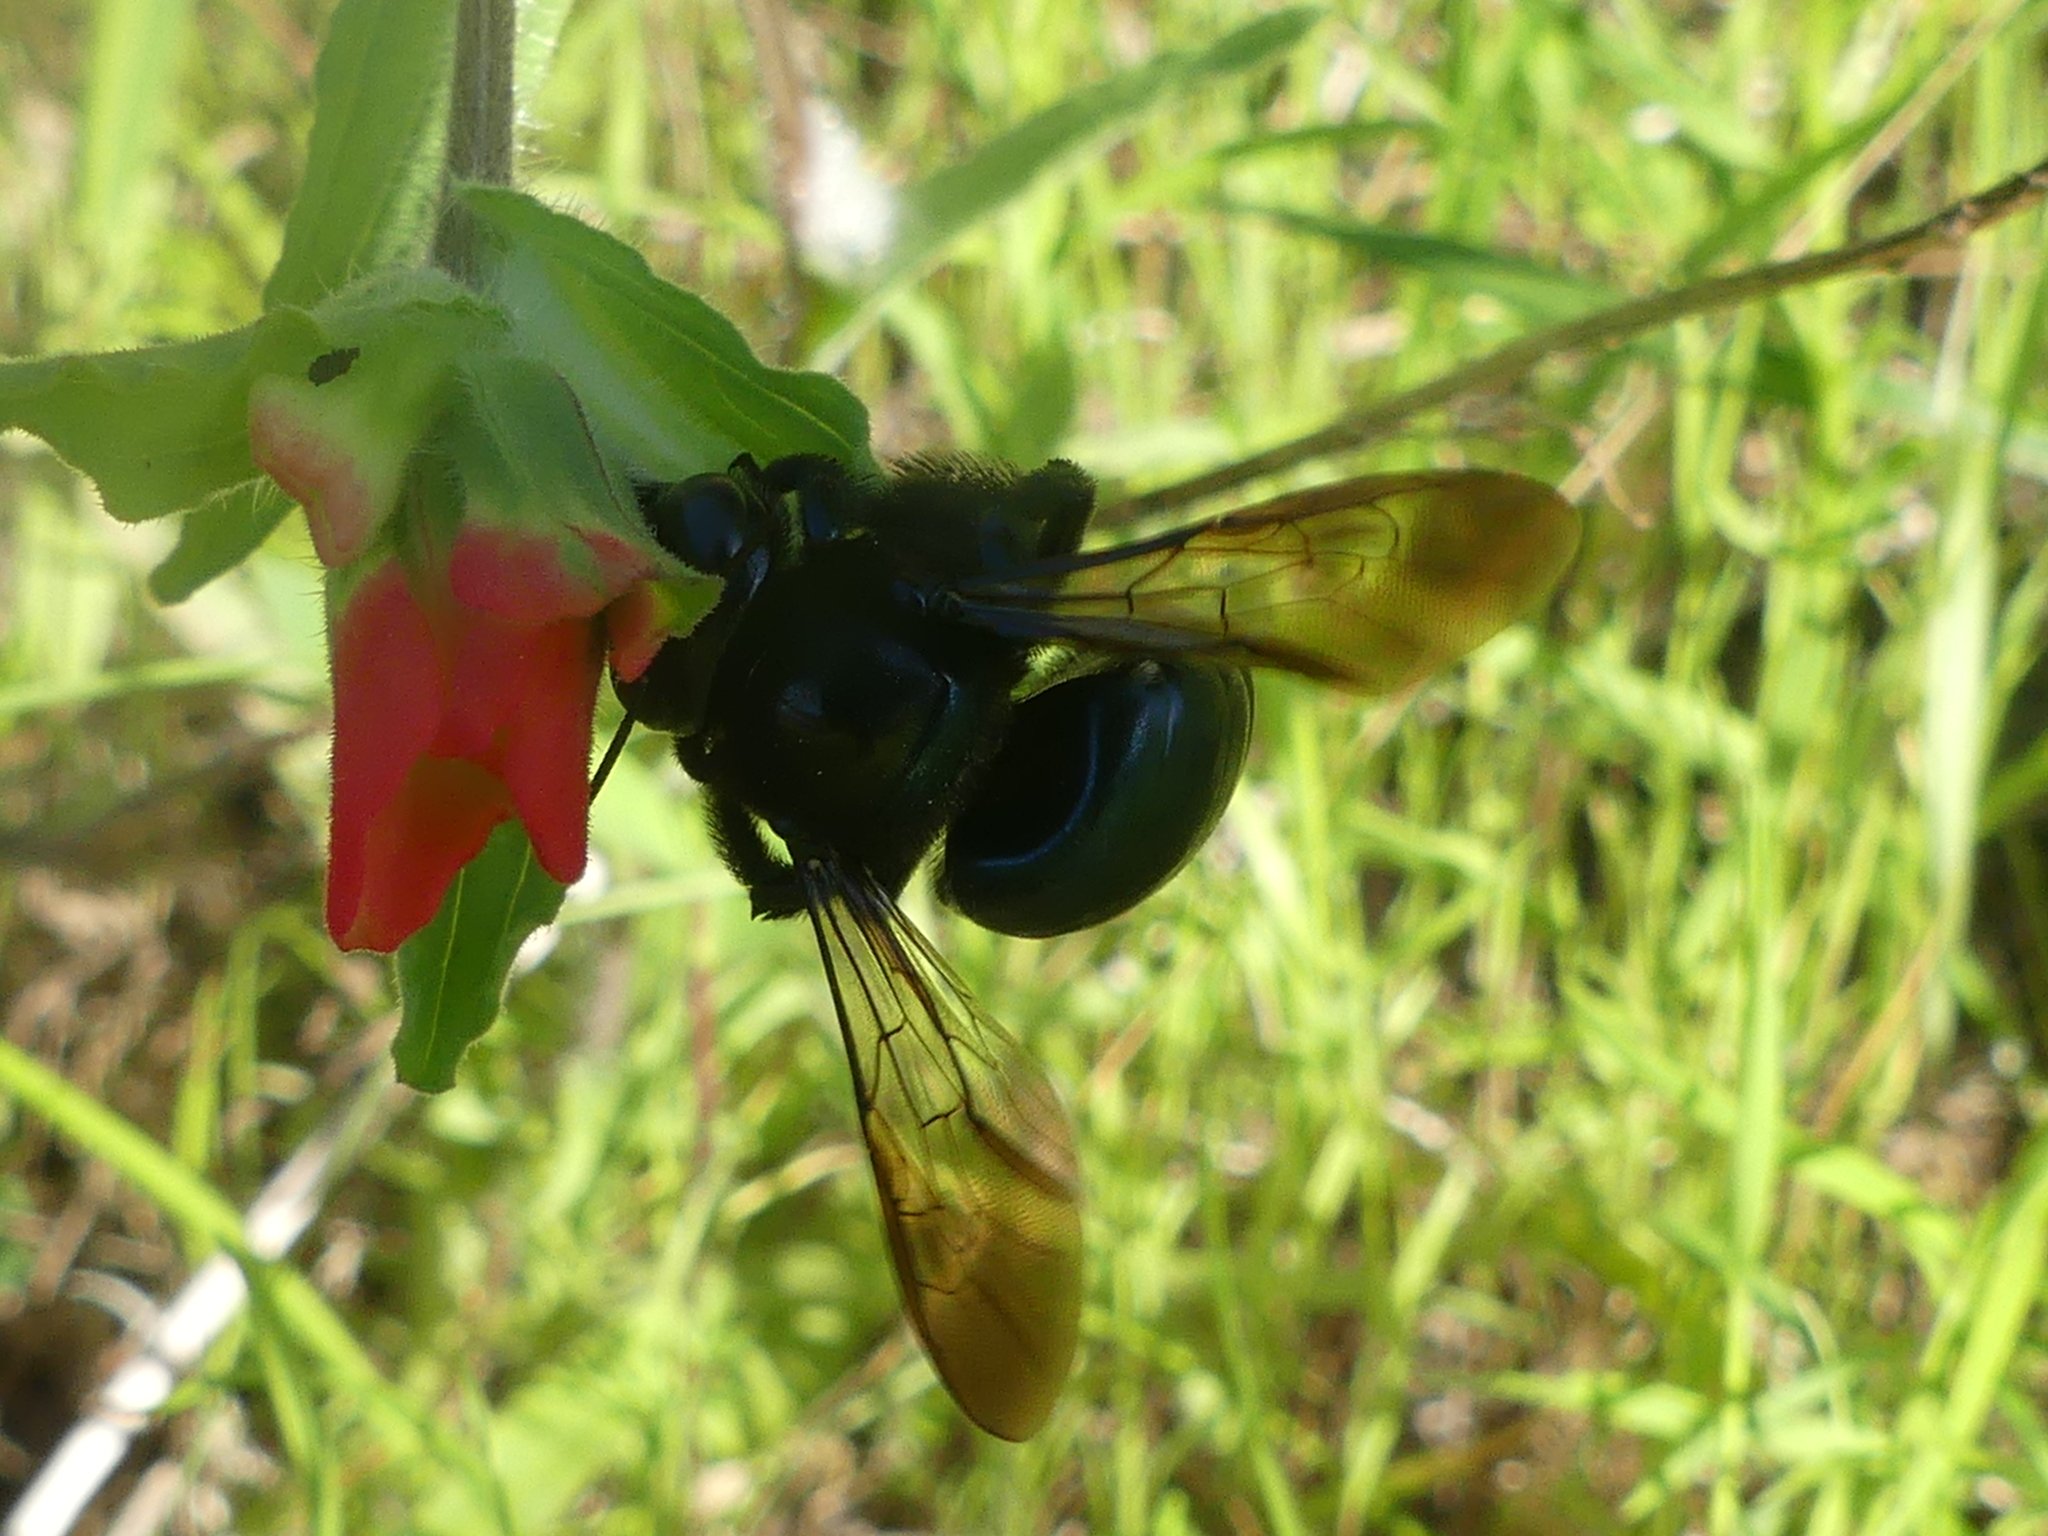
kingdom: Animalia
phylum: Arthropoda
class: Insecta
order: Hymenoptera
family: Apidae
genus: Xylocopa
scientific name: Xylocopa micans
